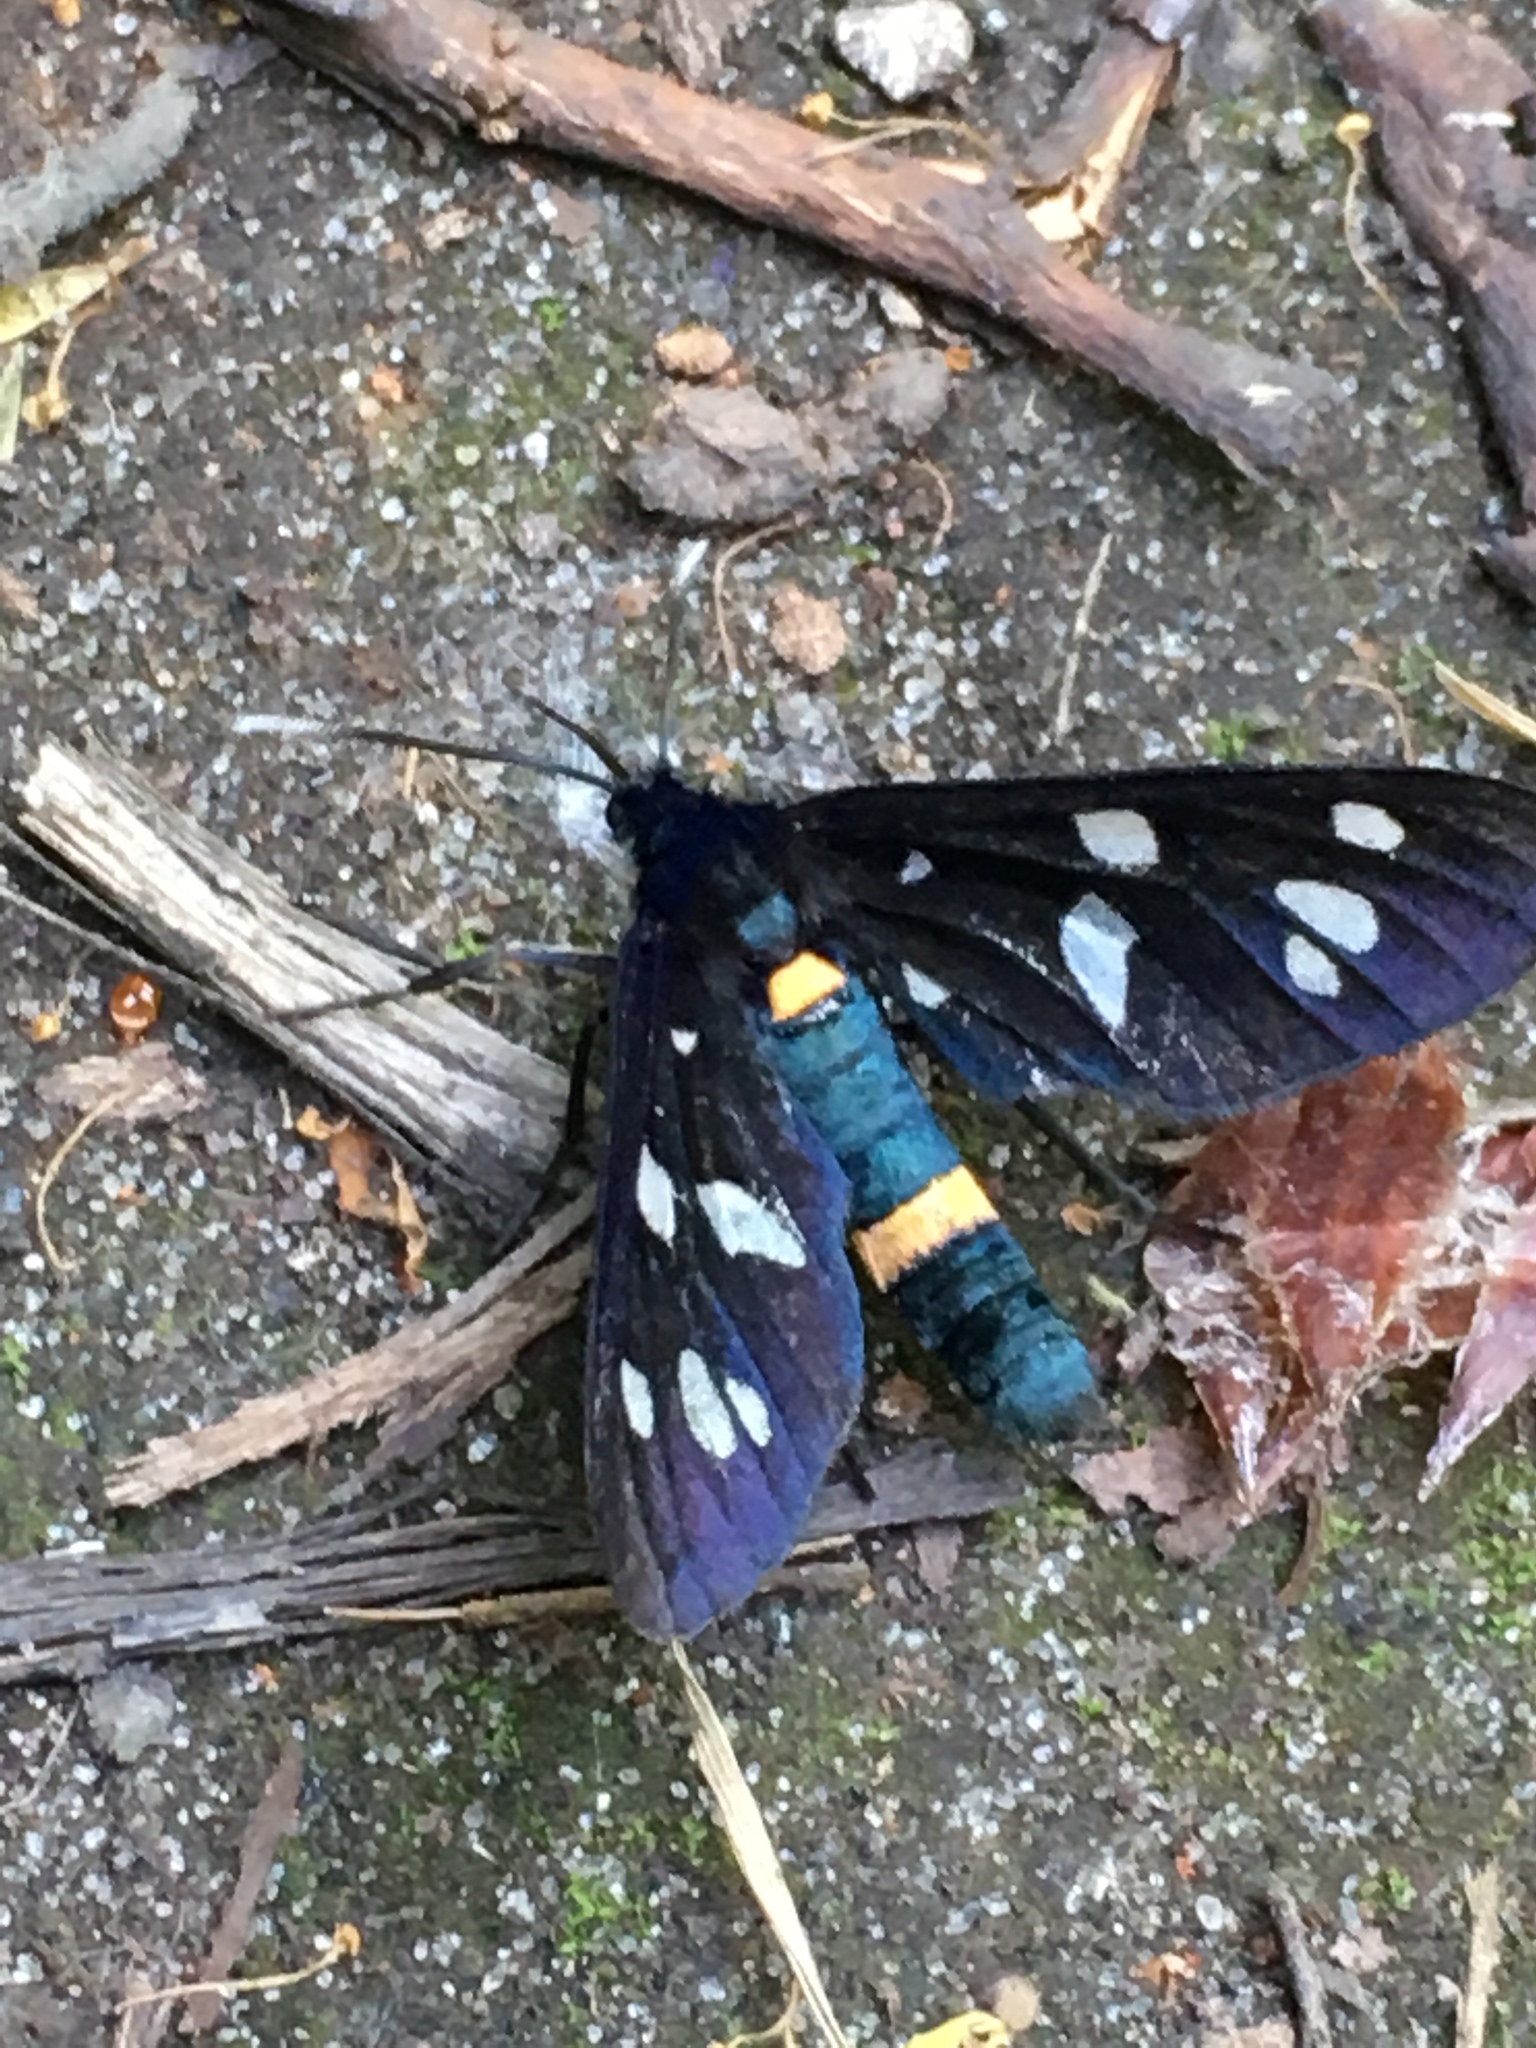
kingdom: Animalia
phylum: Arthropoda
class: Insecta
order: Lepidoptera
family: Erebidae
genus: Amata
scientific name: Amata phegea
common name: Nine-spotted
